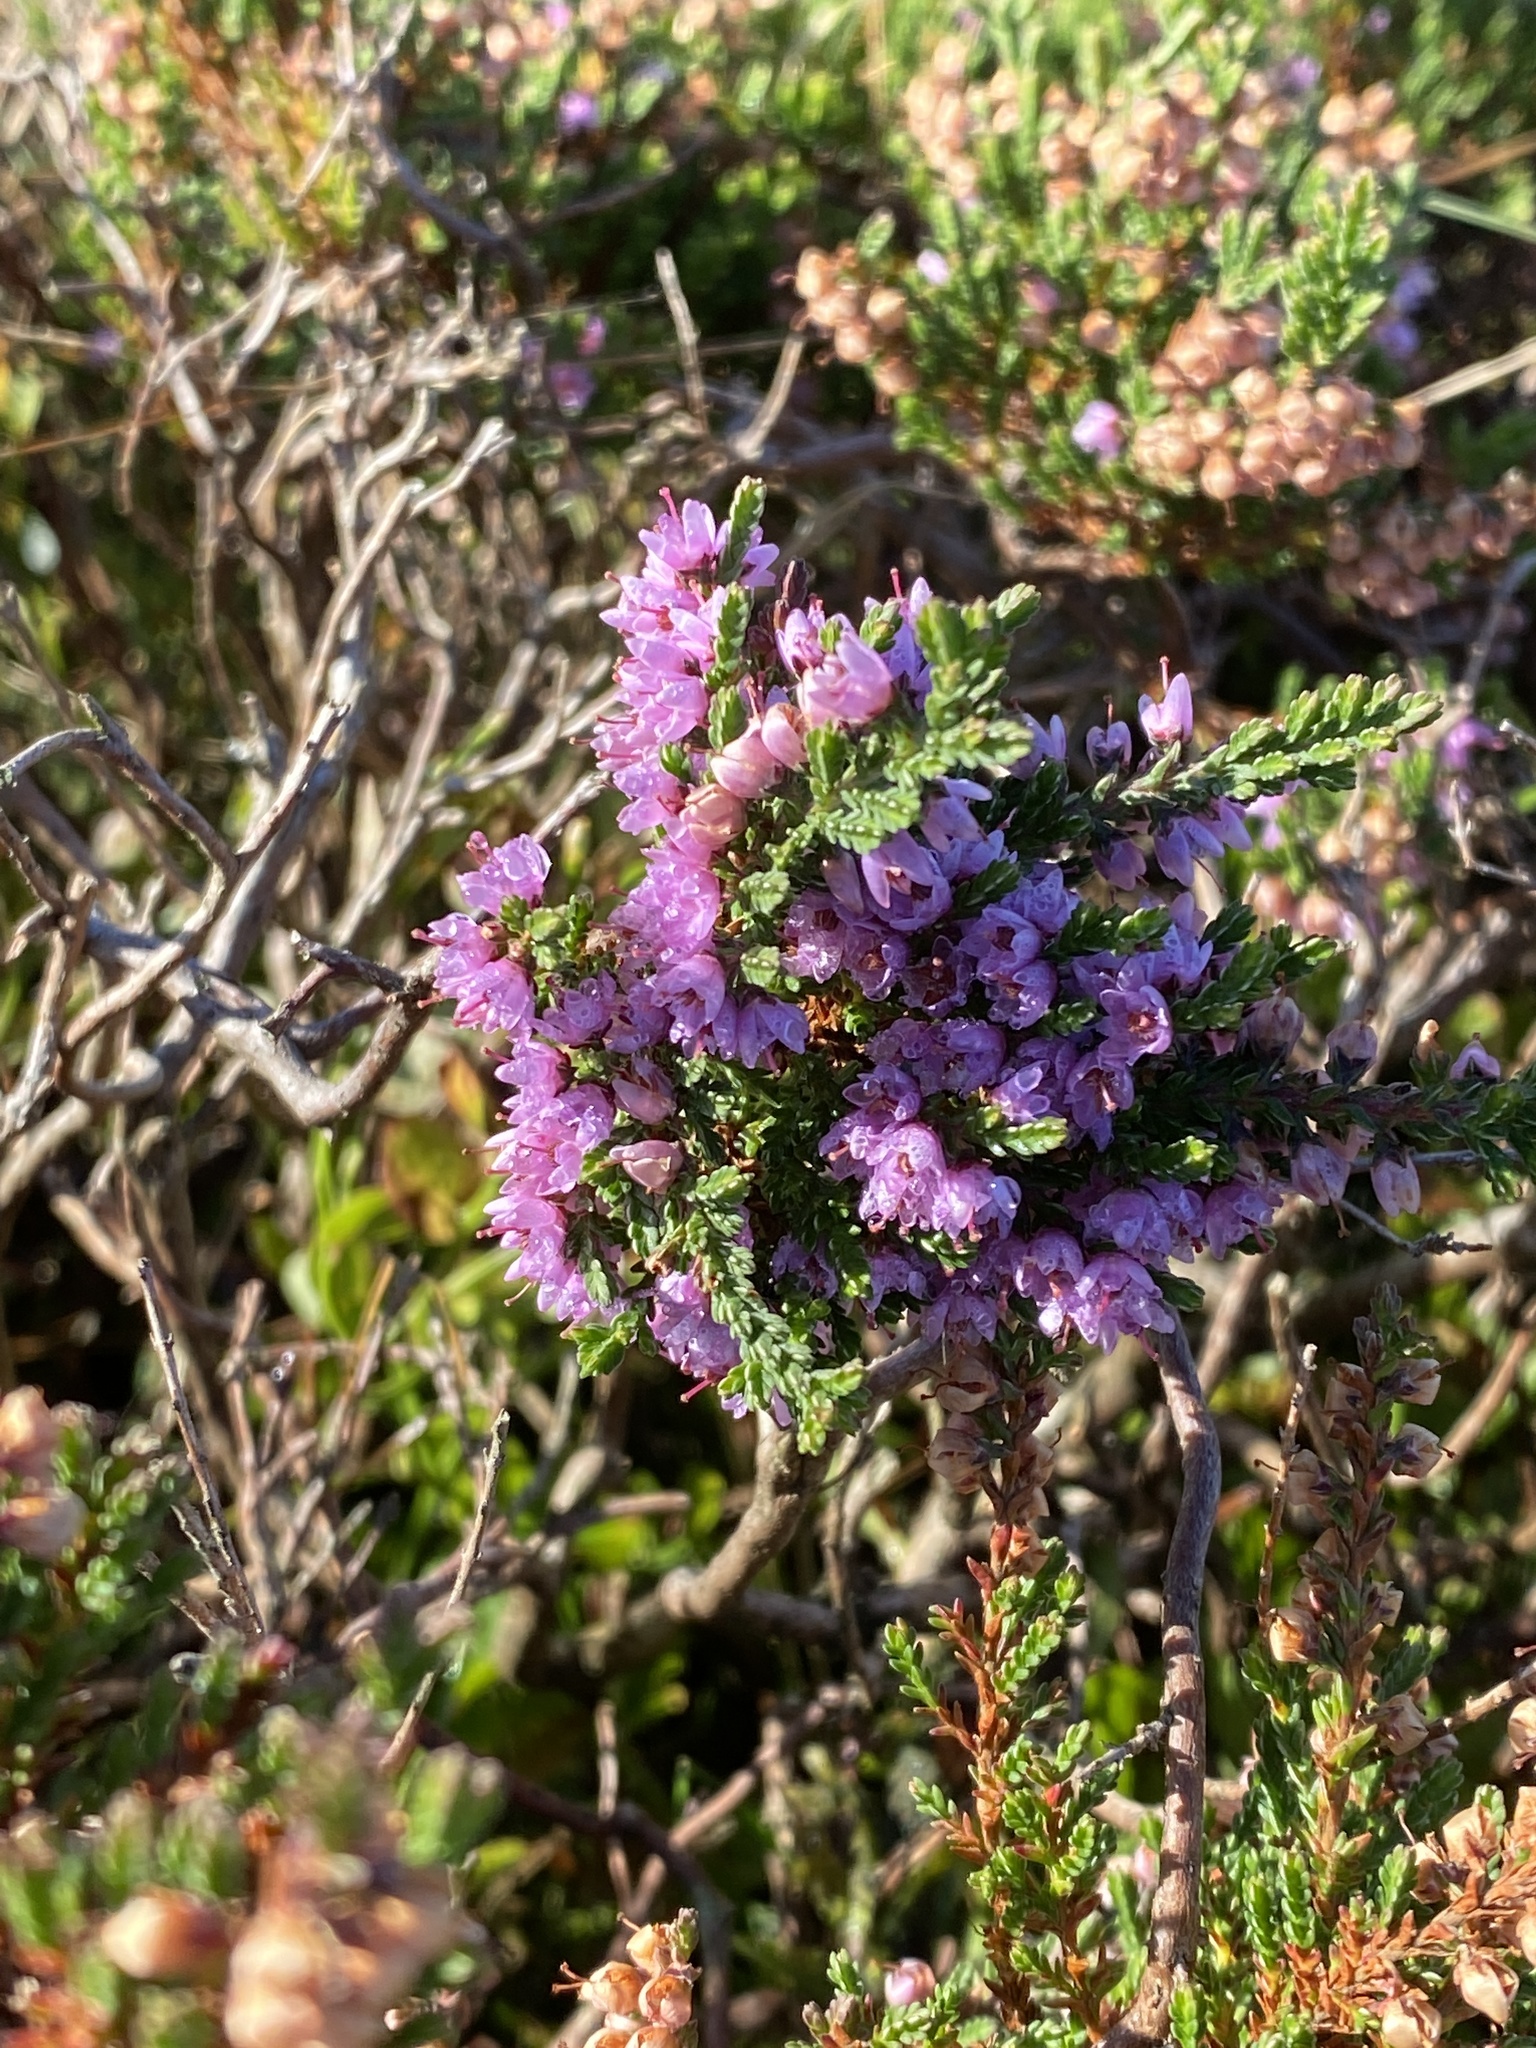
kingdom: Plantae
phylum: Tracheophyta
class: Magnoliopsida
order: Ericales
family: Ericaceae
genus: Calluna
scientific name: Calluna vulgaris
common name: Heather
